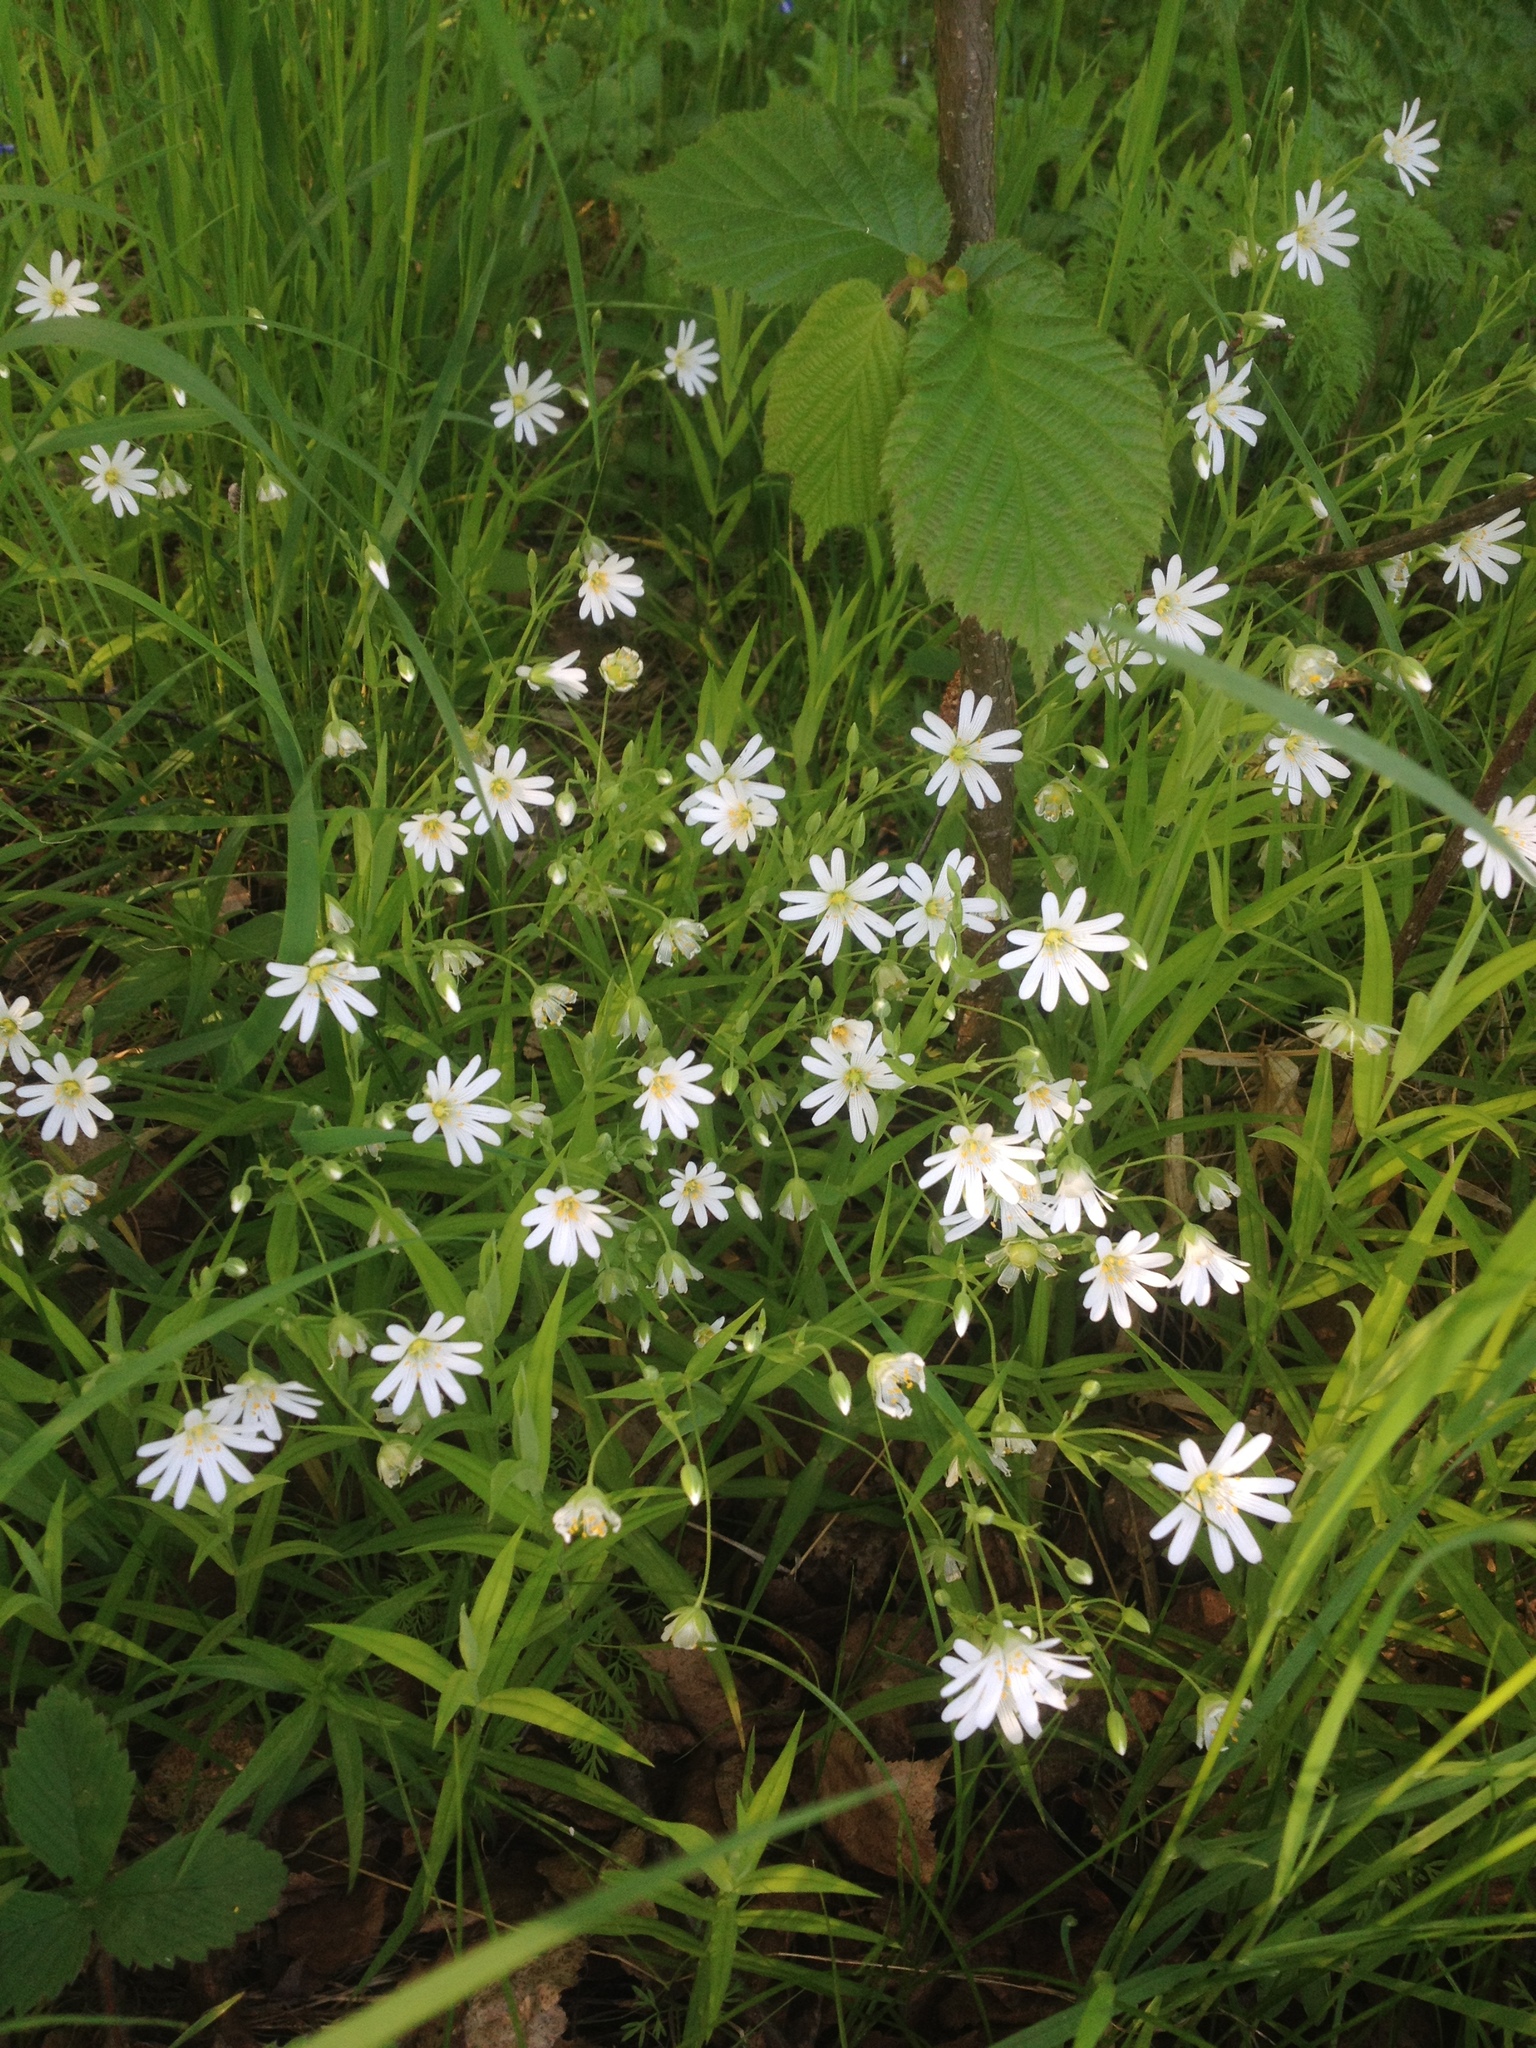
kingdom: Plantae
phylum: Tracheophyta
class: Magnoliopsida
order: Caryophyllales
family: Caryophyllaceae
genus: Rabelera
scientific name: Rabelera holostea
